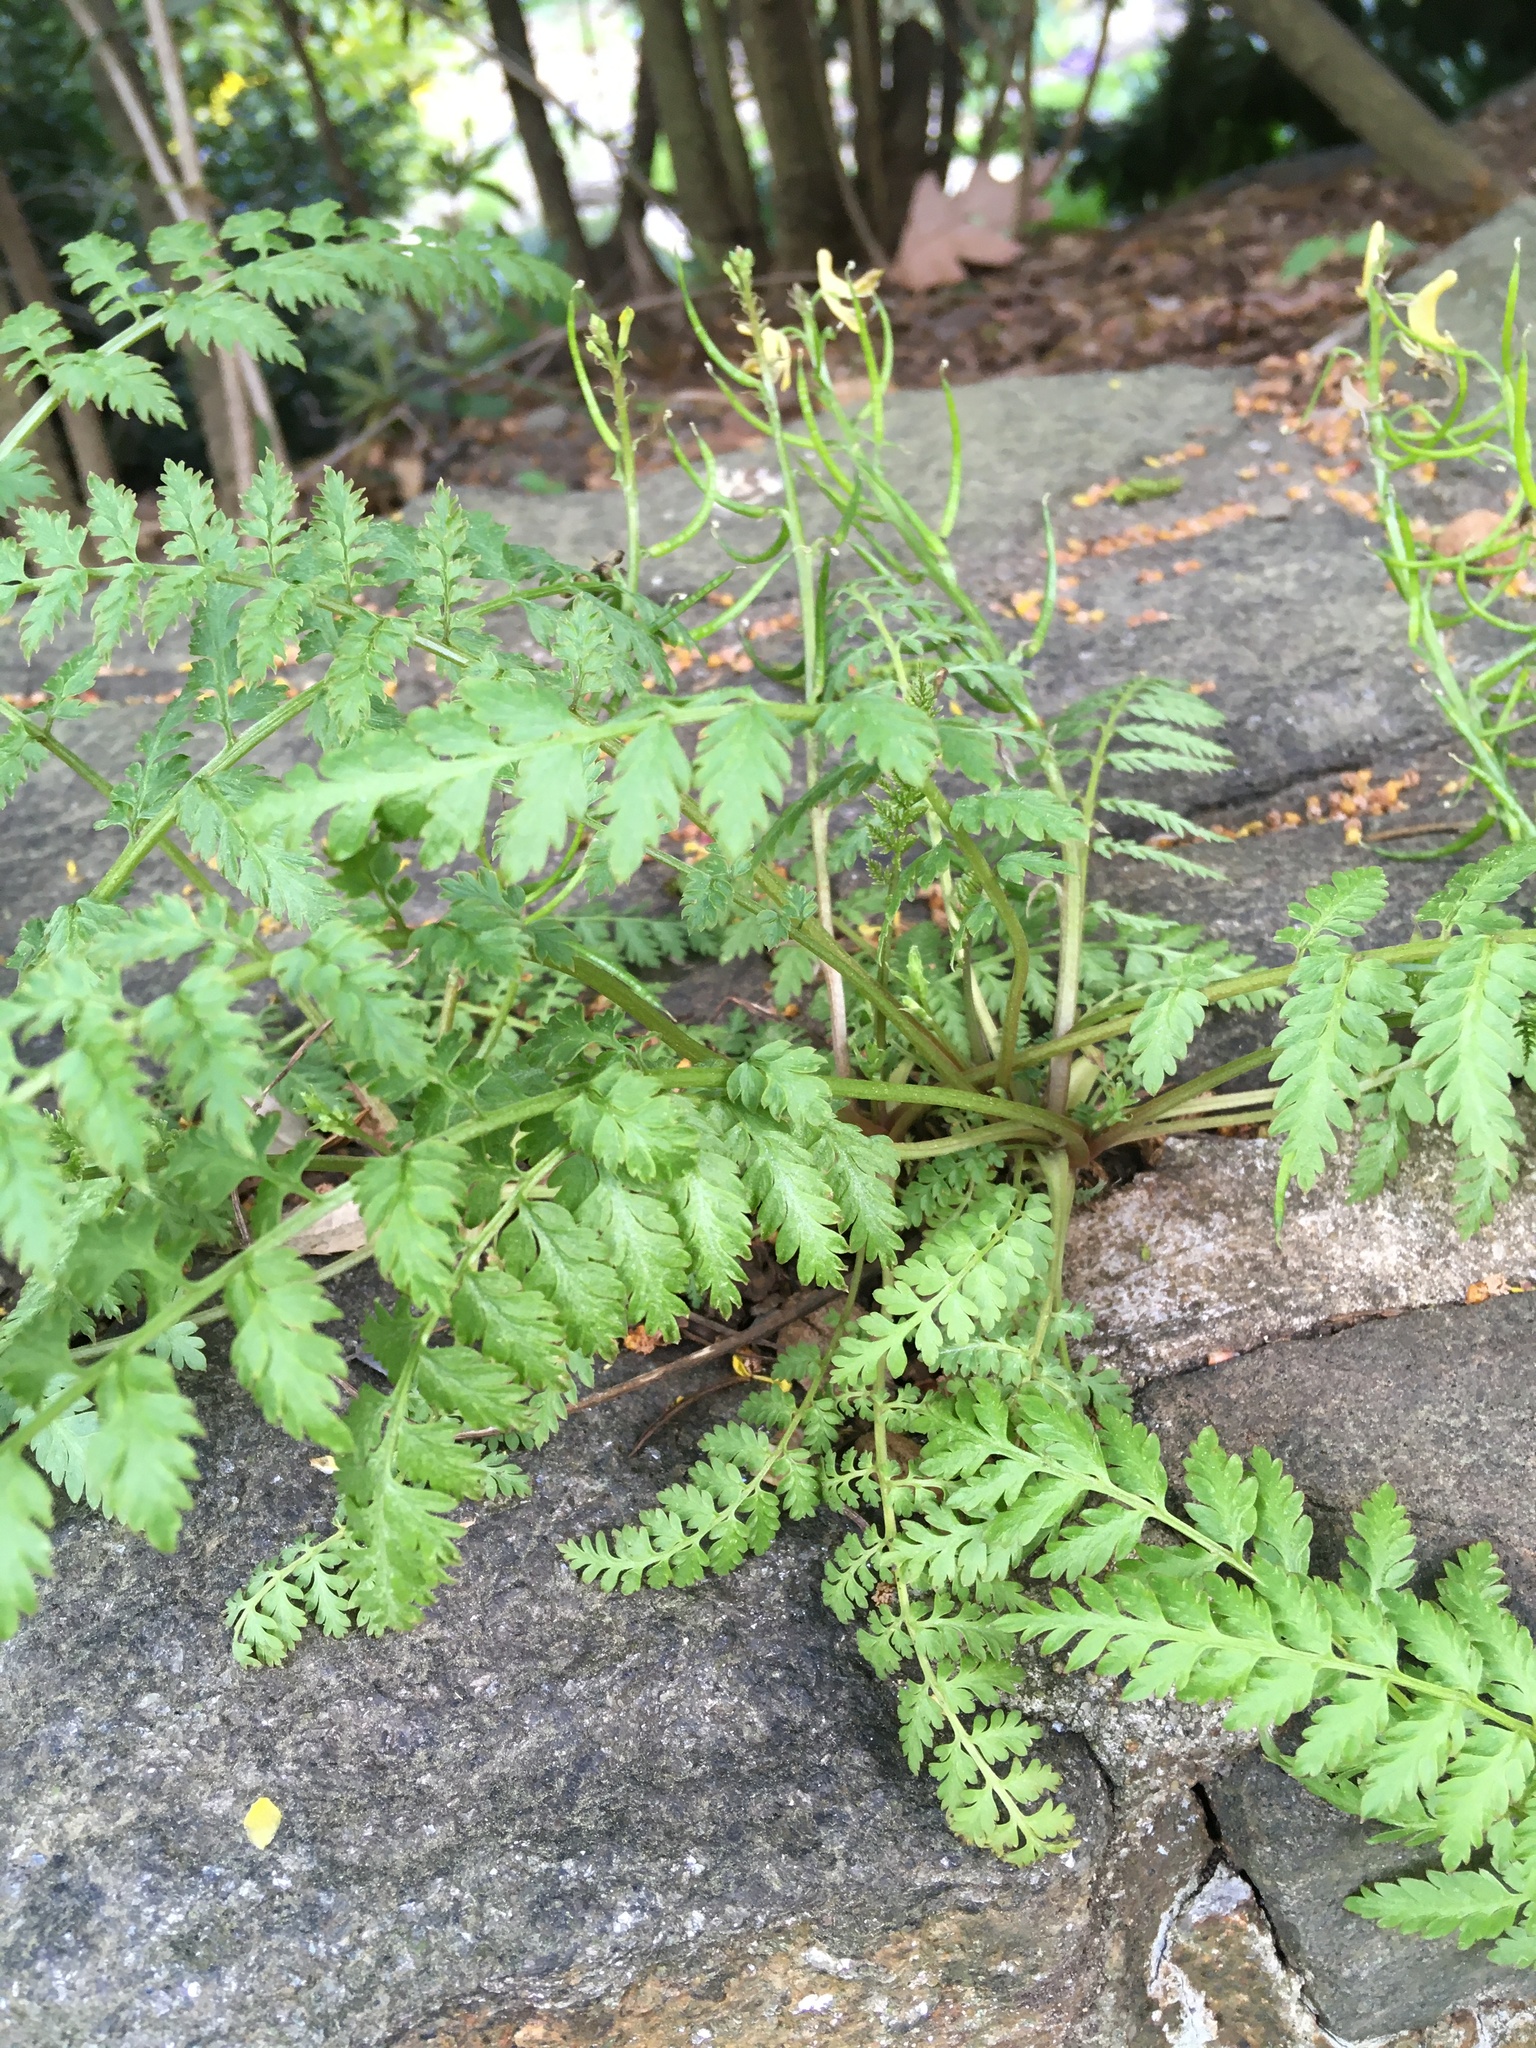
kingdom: Plantae
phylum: Tracheophyta
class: Magnoliopsida
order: Ranunculales
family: Papaveraceae
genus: Corydalis
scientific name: Corydalis cheilanthifolia
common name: Fern-leaved corydalis
